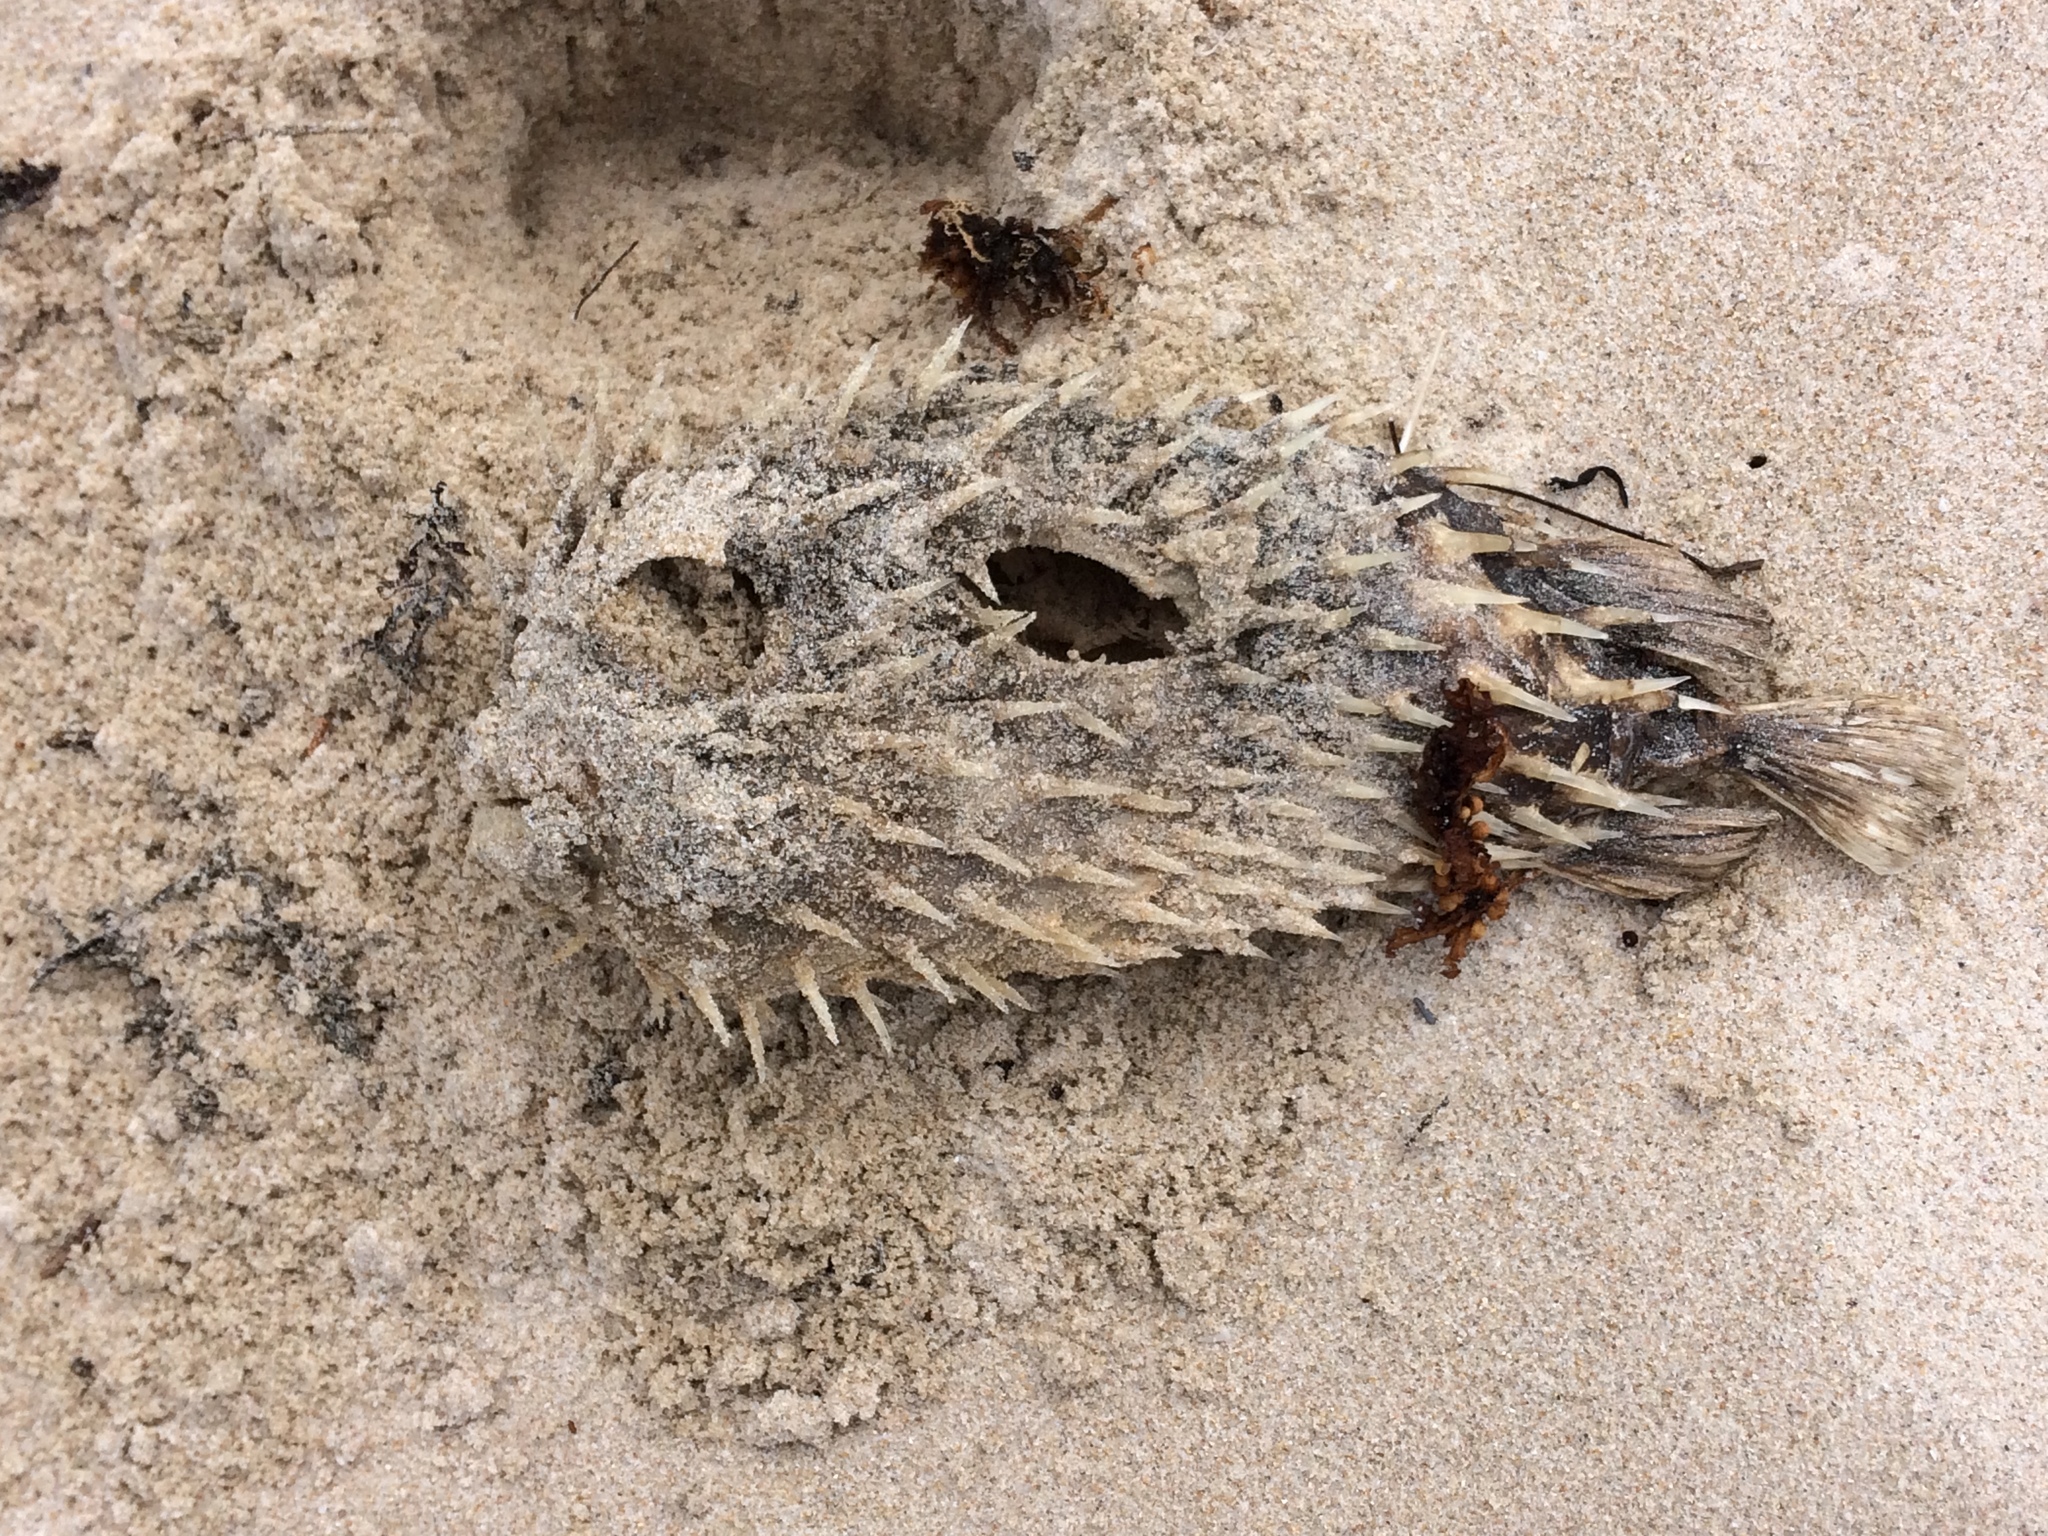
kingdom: Animalia
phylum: Chordata
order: Tetraodontiformes
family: Diodontidae
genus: Diodon
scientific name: Diodon nicthemerus
